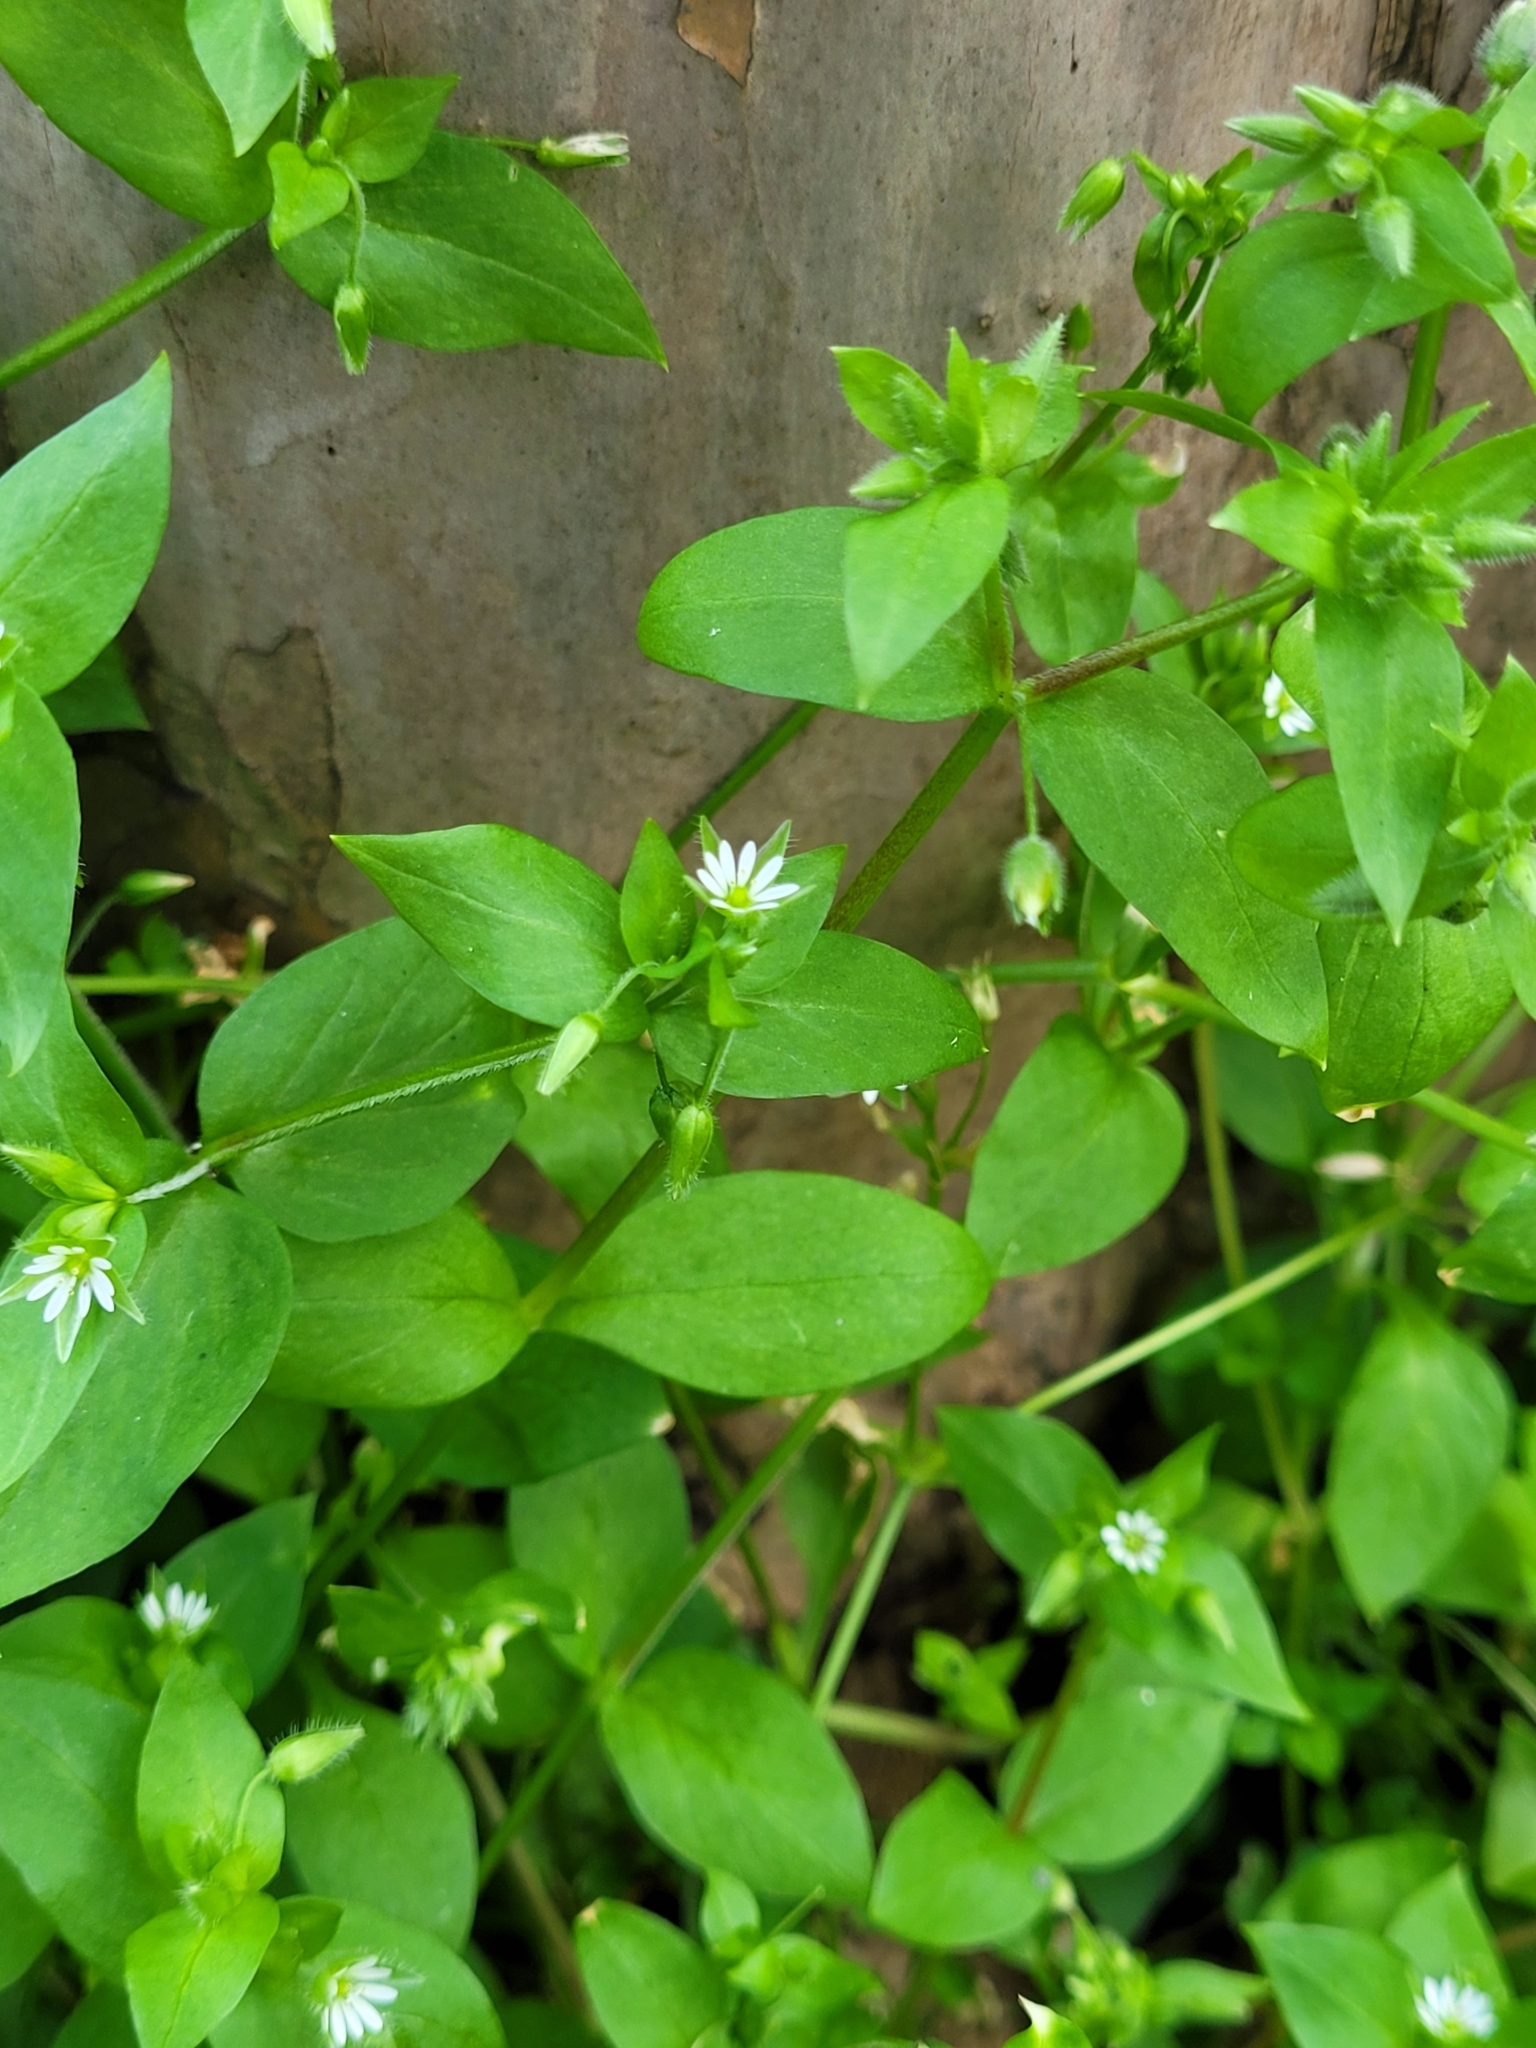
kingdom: Plantae
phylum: Tracheophyta
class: Magnoliopsida
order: Caryophyllales
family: Caryophyllaceae
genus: Stellaria
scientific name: Stellaria media
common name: Common chickweed
